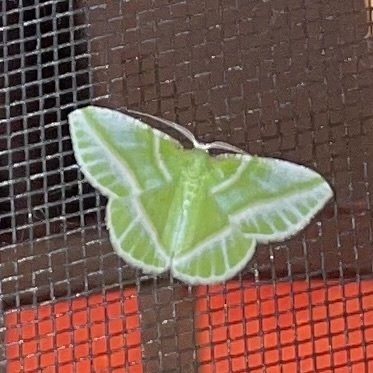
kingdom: Animalia
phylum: Arthropoda
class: Insecta
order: Lepidoptera
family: Geometridae
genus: Dichorda
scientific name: Dichorda iridaria
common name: Showy emerald
